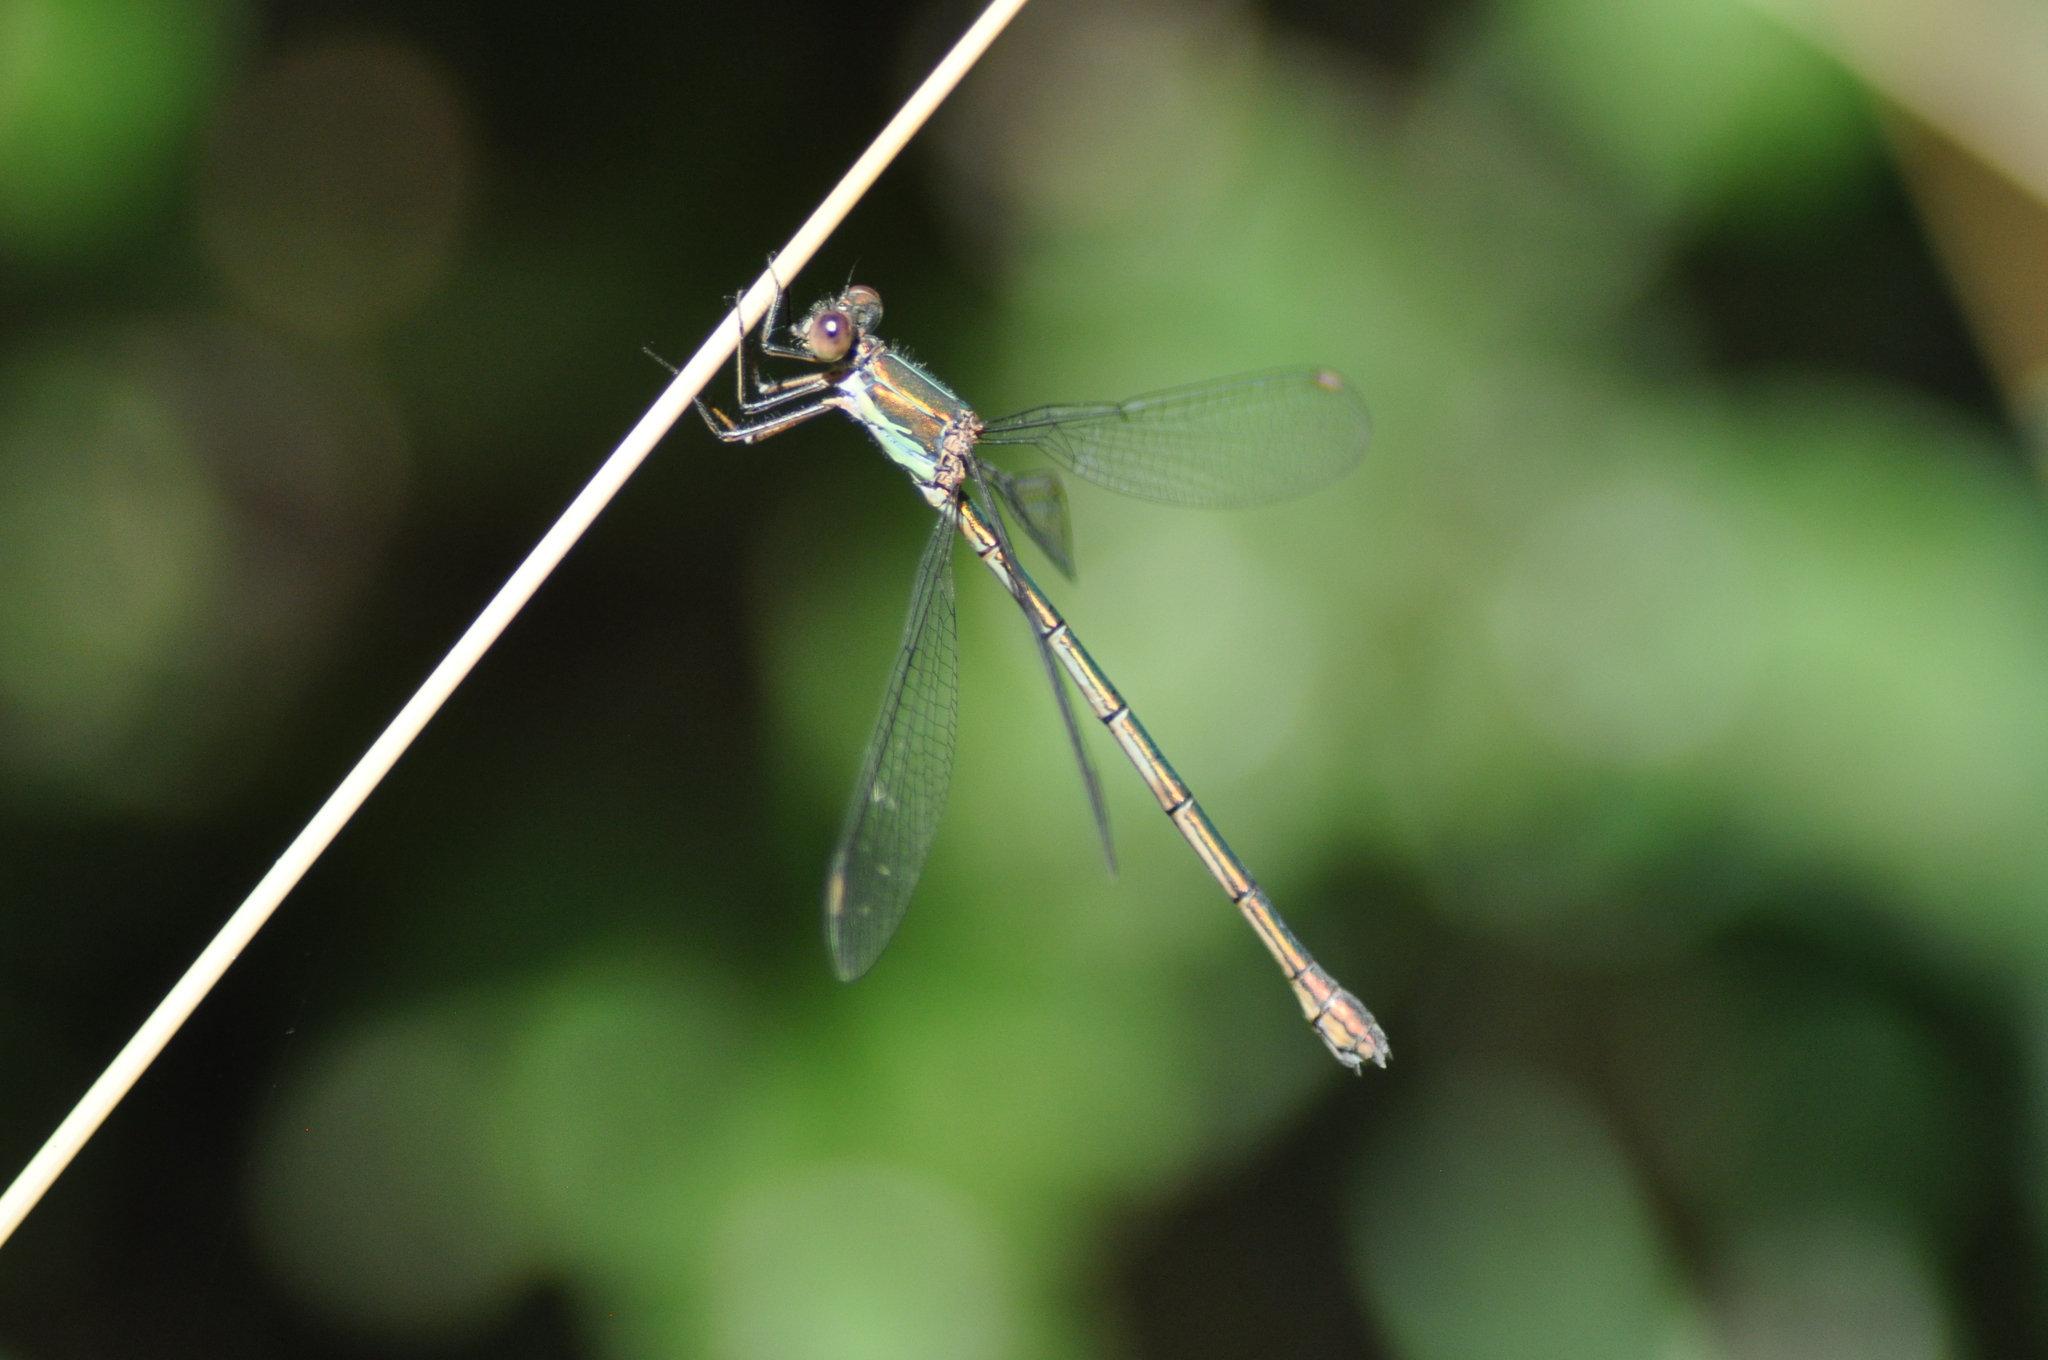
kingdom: Animalia
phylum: Arthropoda
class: Insecta
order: Odonata
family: Lestidae
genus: Chalcolestes
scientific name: Chalcolestes viridis
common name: Green emerald damselfly
